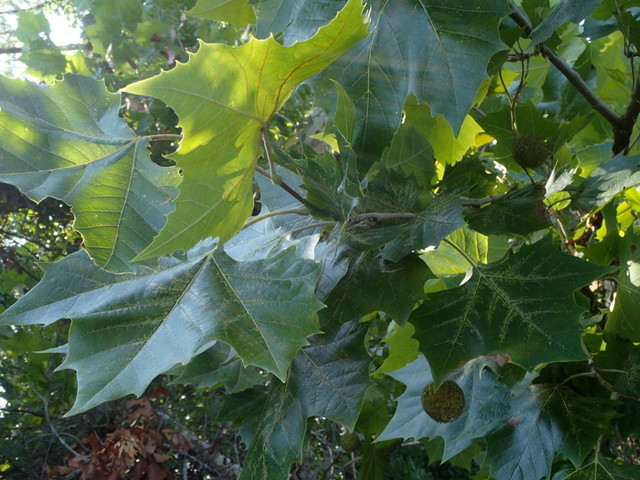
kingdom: Plantae
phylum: Tracheophyta
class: Magnoliopsida
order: Proteales
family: Platanaceae
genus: Platanus
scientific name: Platanus occidentalis
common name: American sycamore
